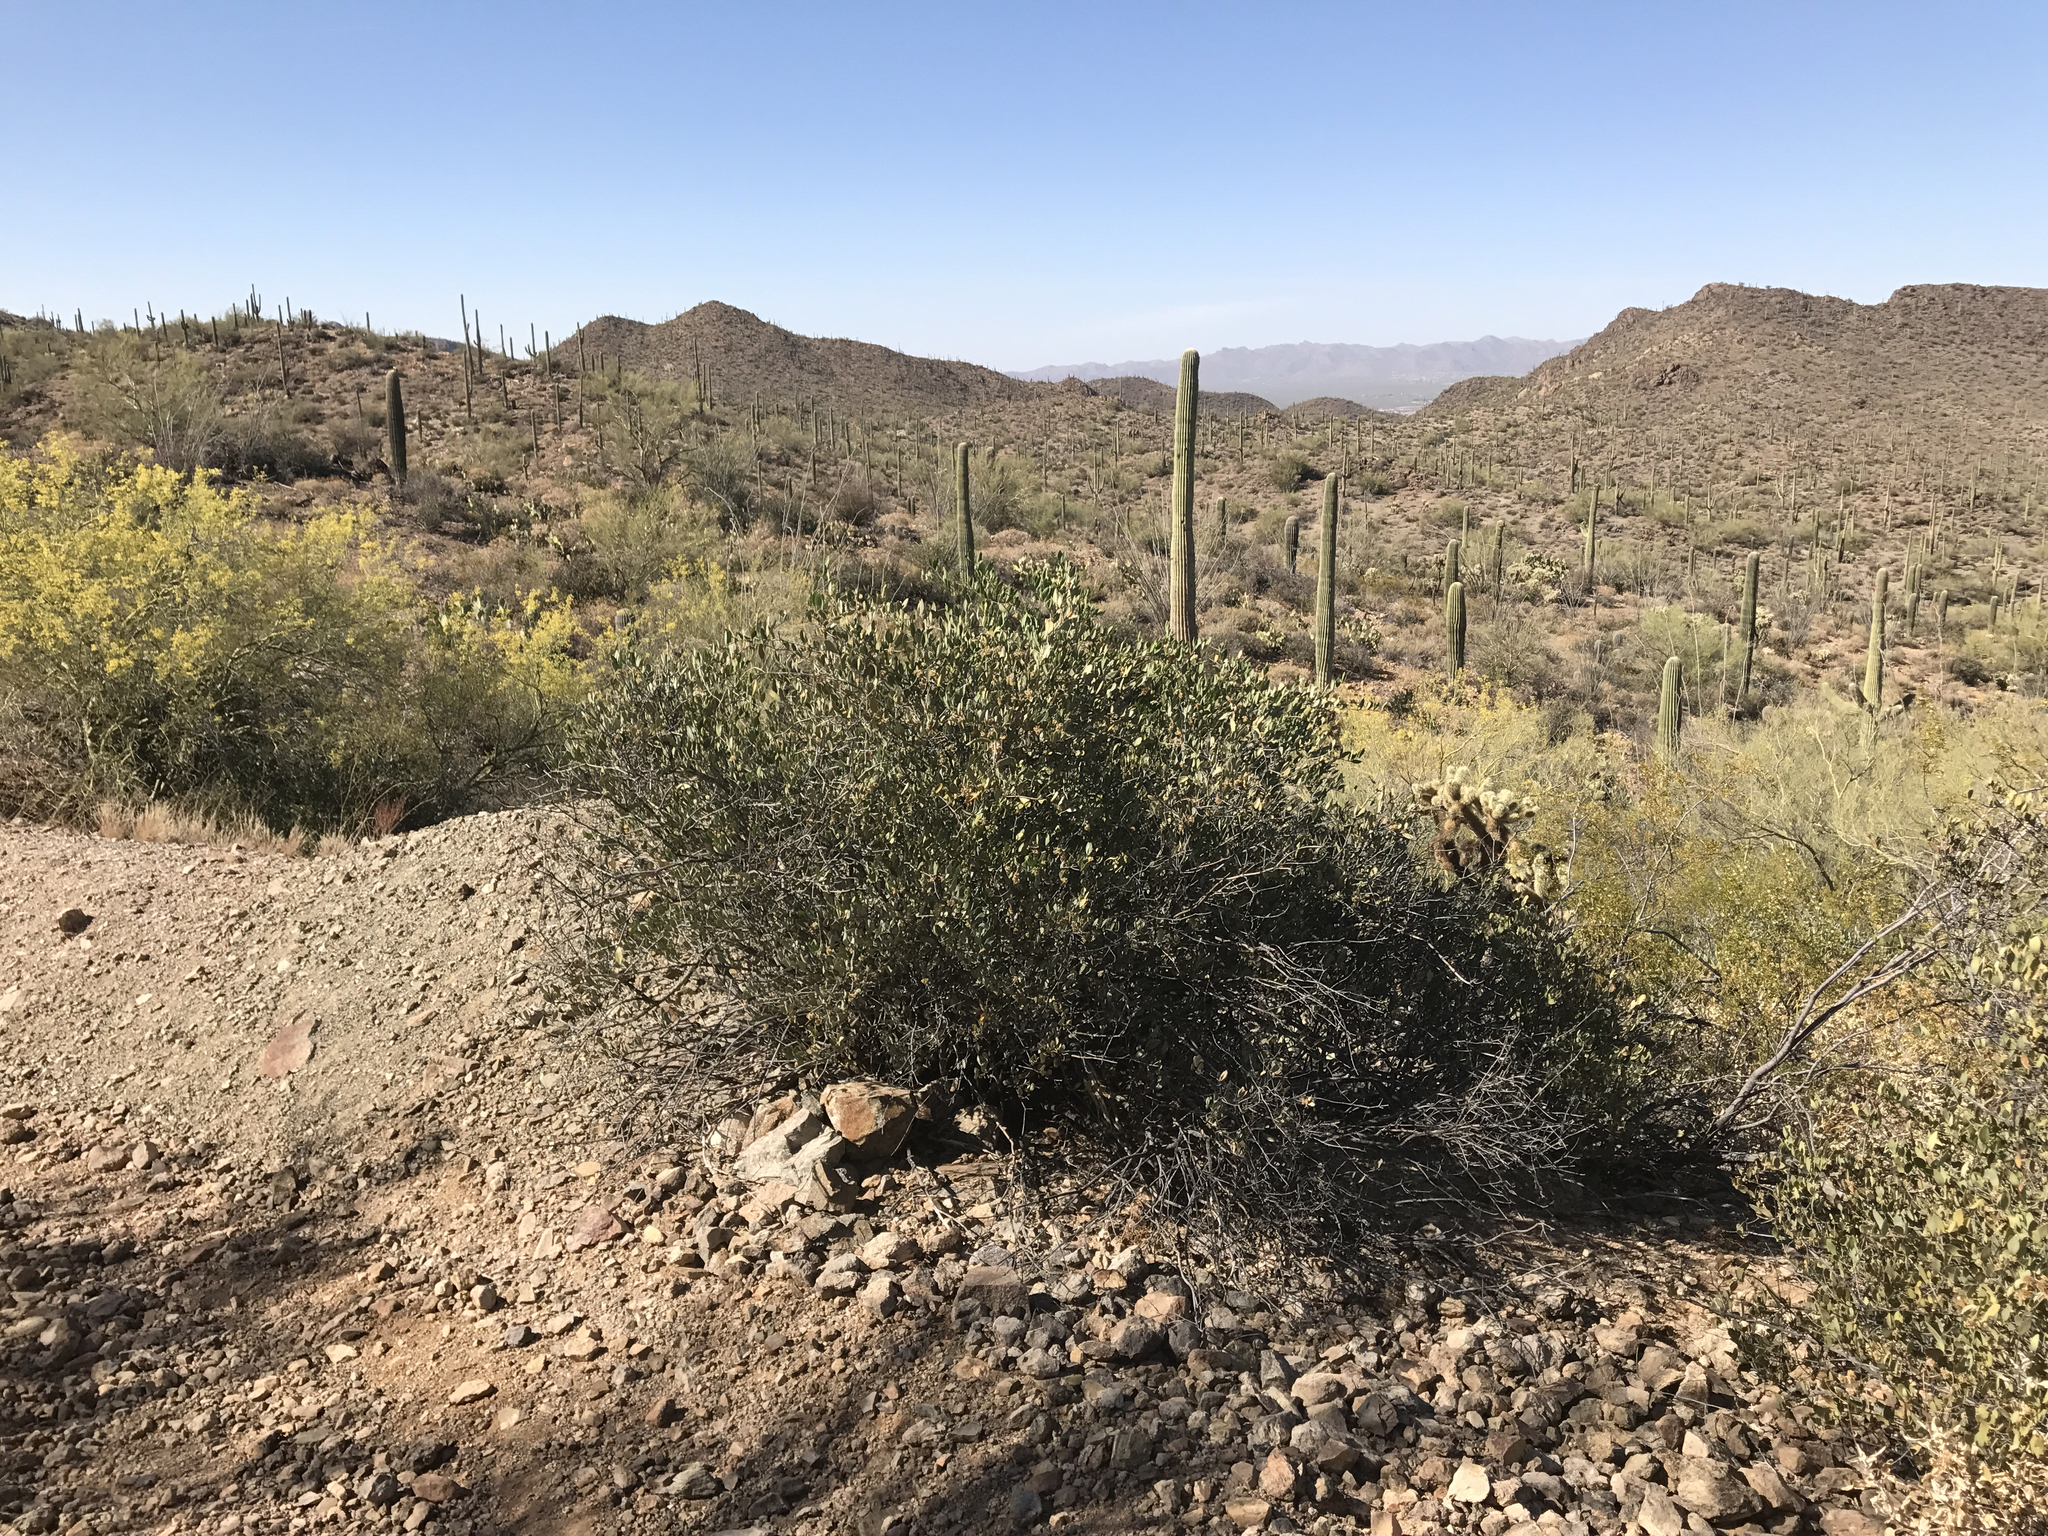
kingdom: Plantae
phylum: Tracheophyta
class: Magnoliopsida
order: Caryophyllales
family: Simmondsiaceae
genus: Simmondsia
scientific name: Simmondsia chinensis
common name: Jojoba
